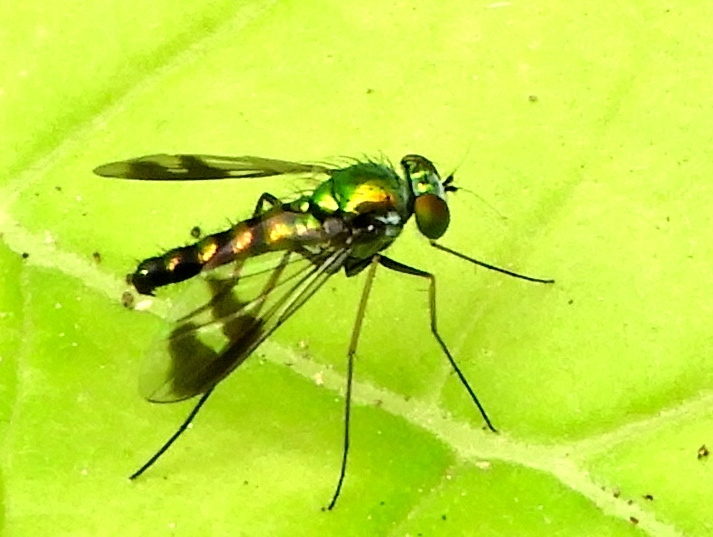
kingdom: Animalia
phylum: Arthropoda
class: Insecta
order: Diptera
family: Dolichopodidae
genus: Condylostylus
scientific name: Condylostylus
